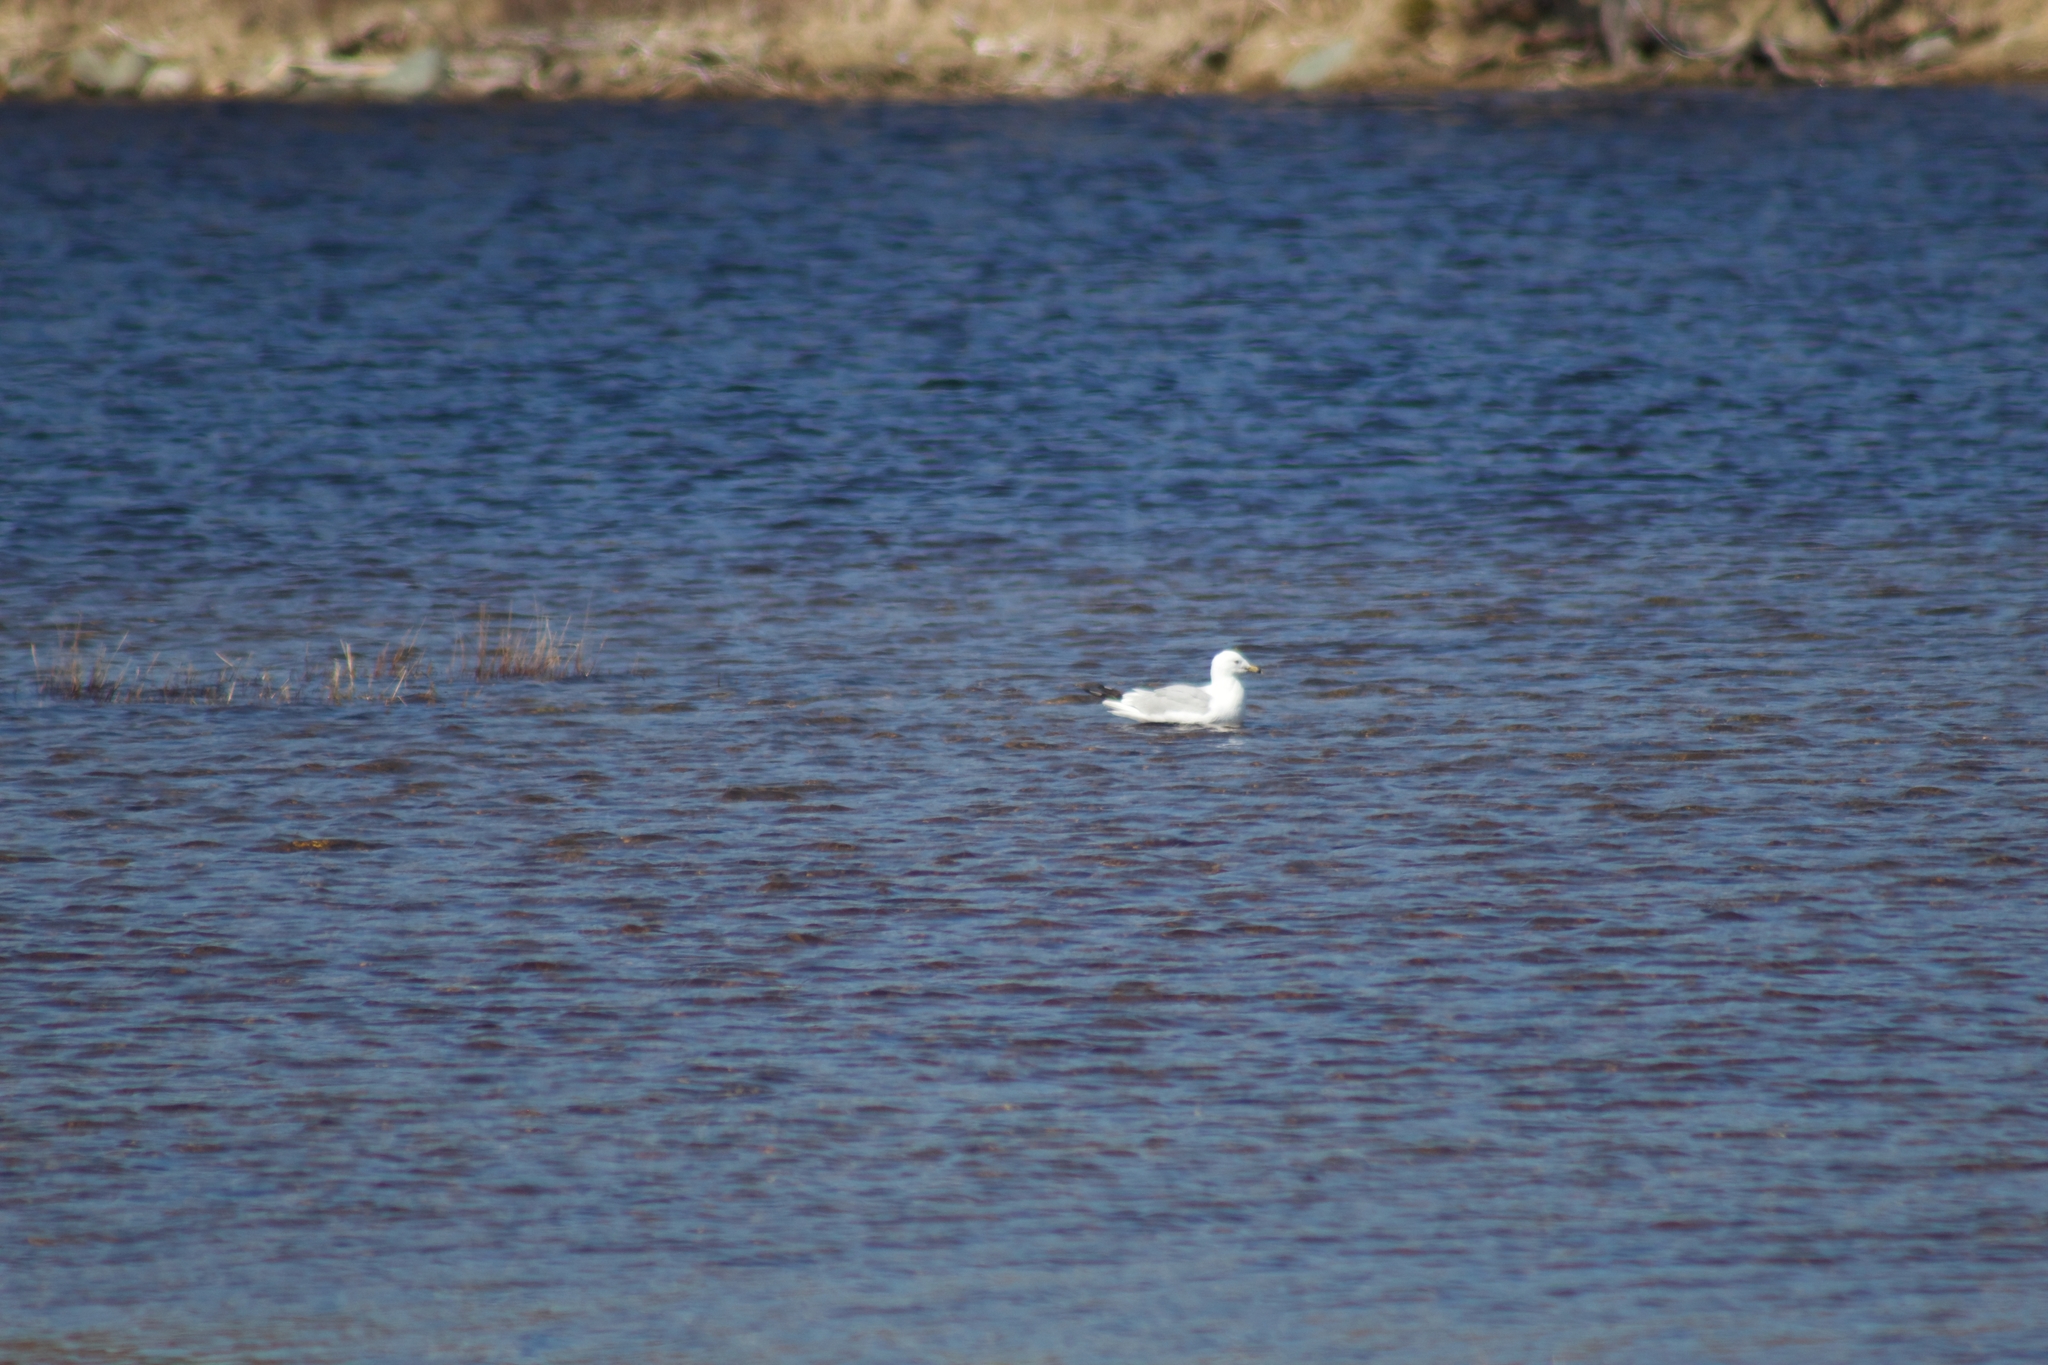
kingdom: Animalia
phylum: Chordata
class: Aves
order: Charadriiformes
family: Laridae
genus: Larus
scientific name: Larus delawarensis
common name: Ring-billed gull
